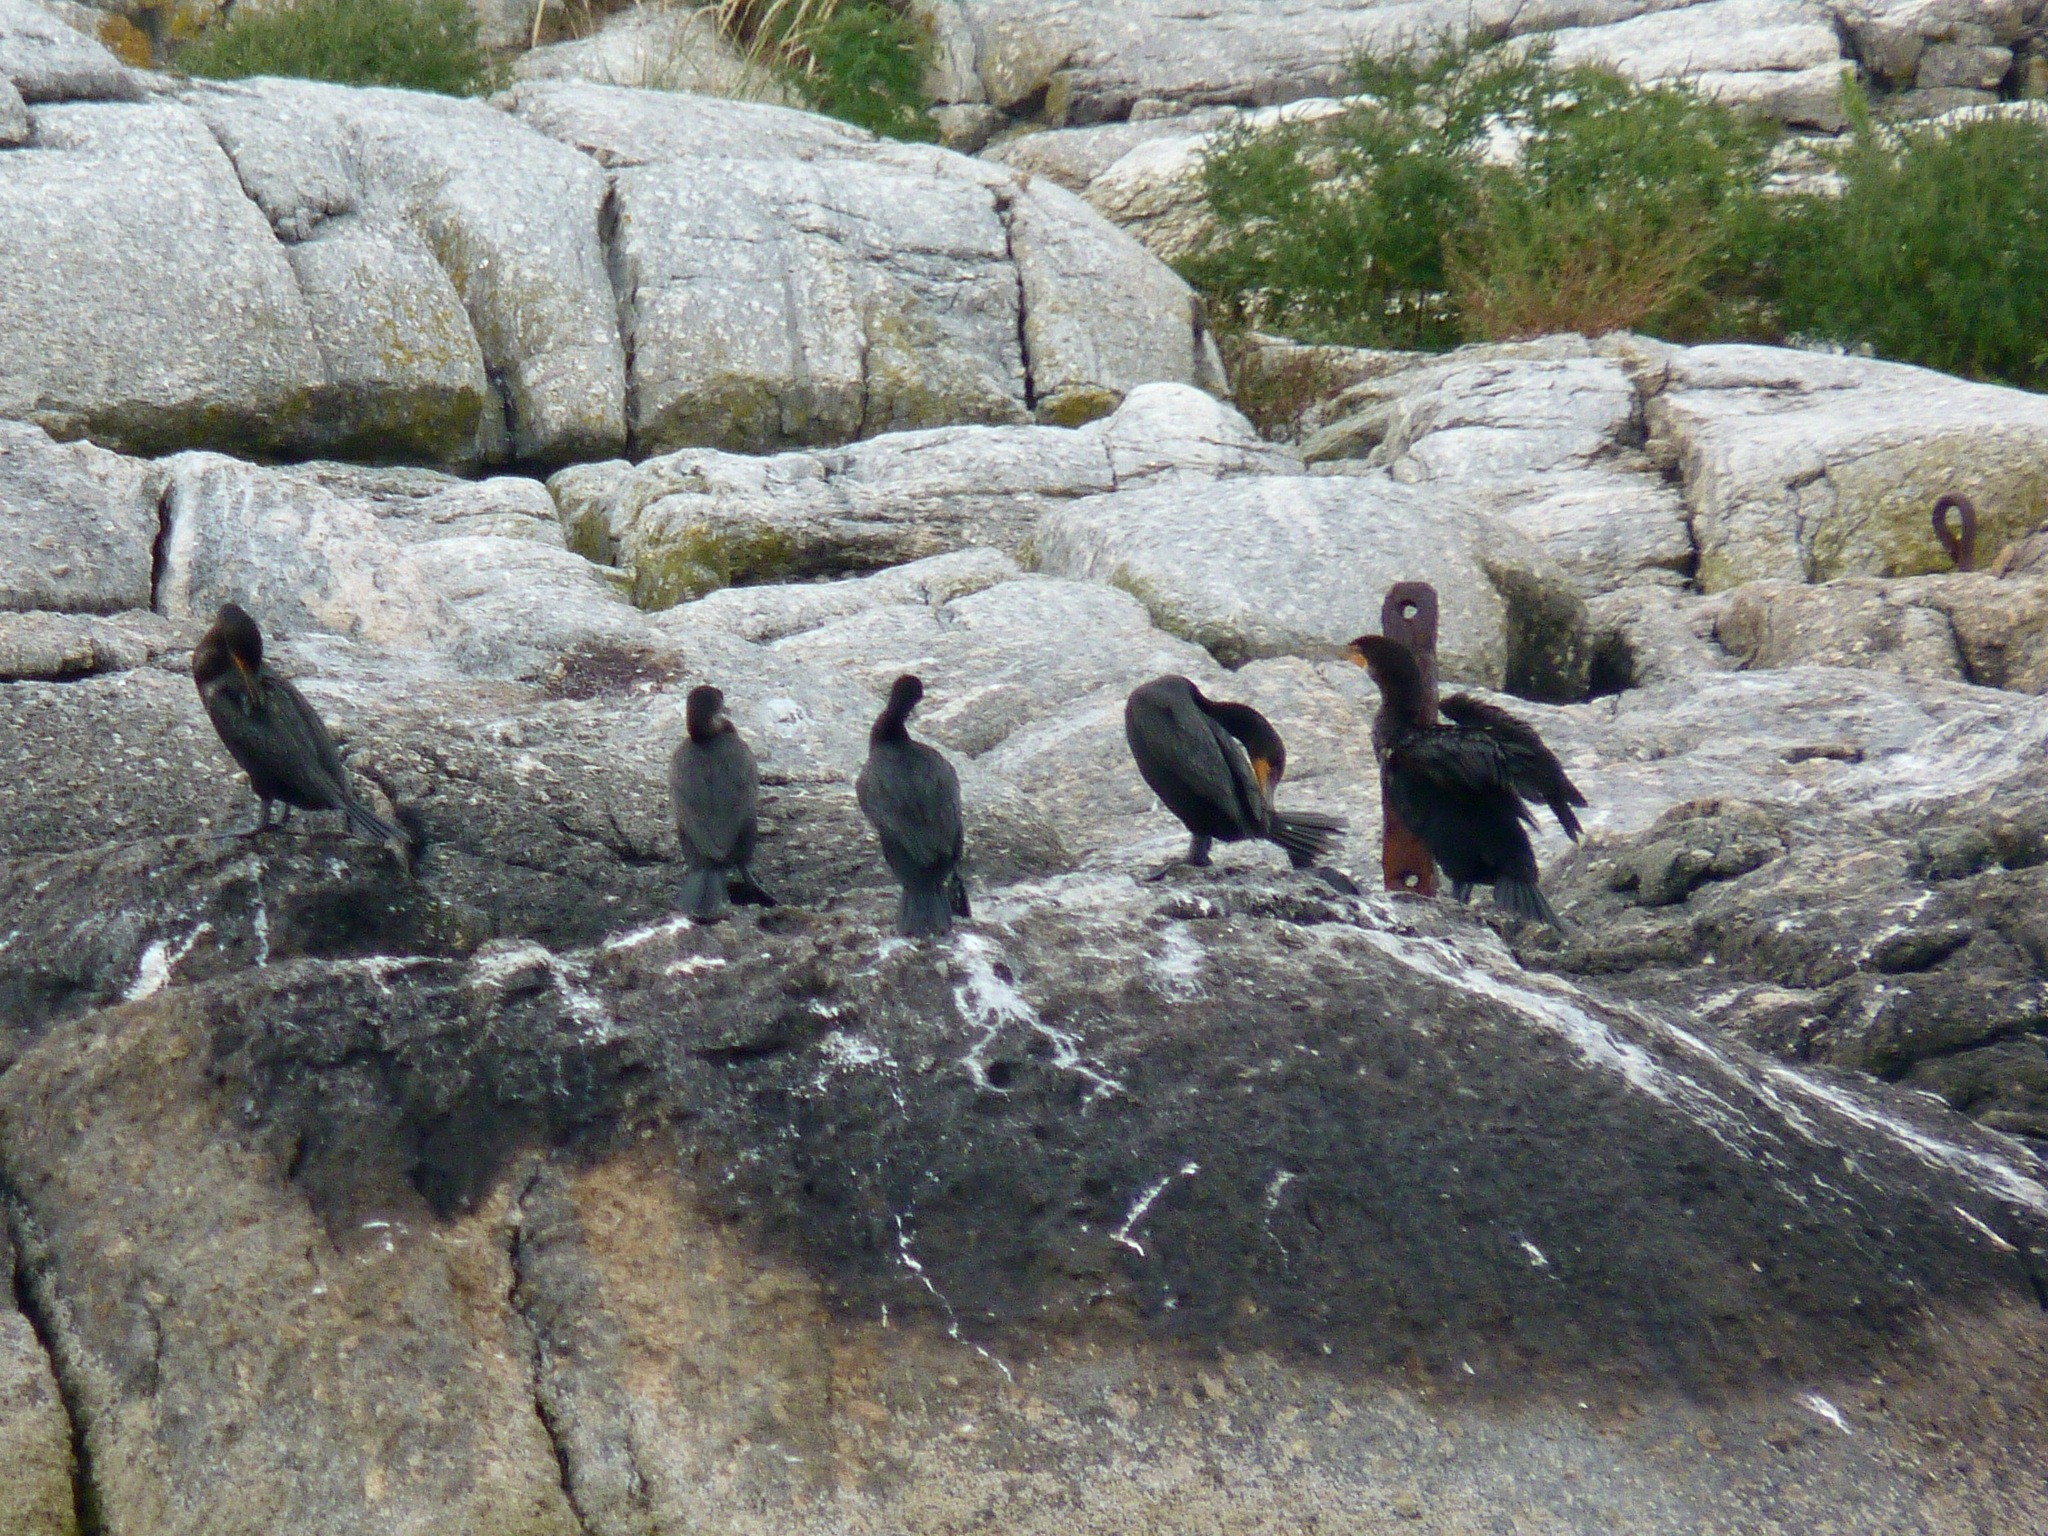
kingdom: Animalia
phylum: Chordata
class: Aves
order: Suliformes
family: Phalacrocoracidae
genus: Phalacrocorax
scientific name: Phalacrocorax auritus
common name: Double-crested cormorant
